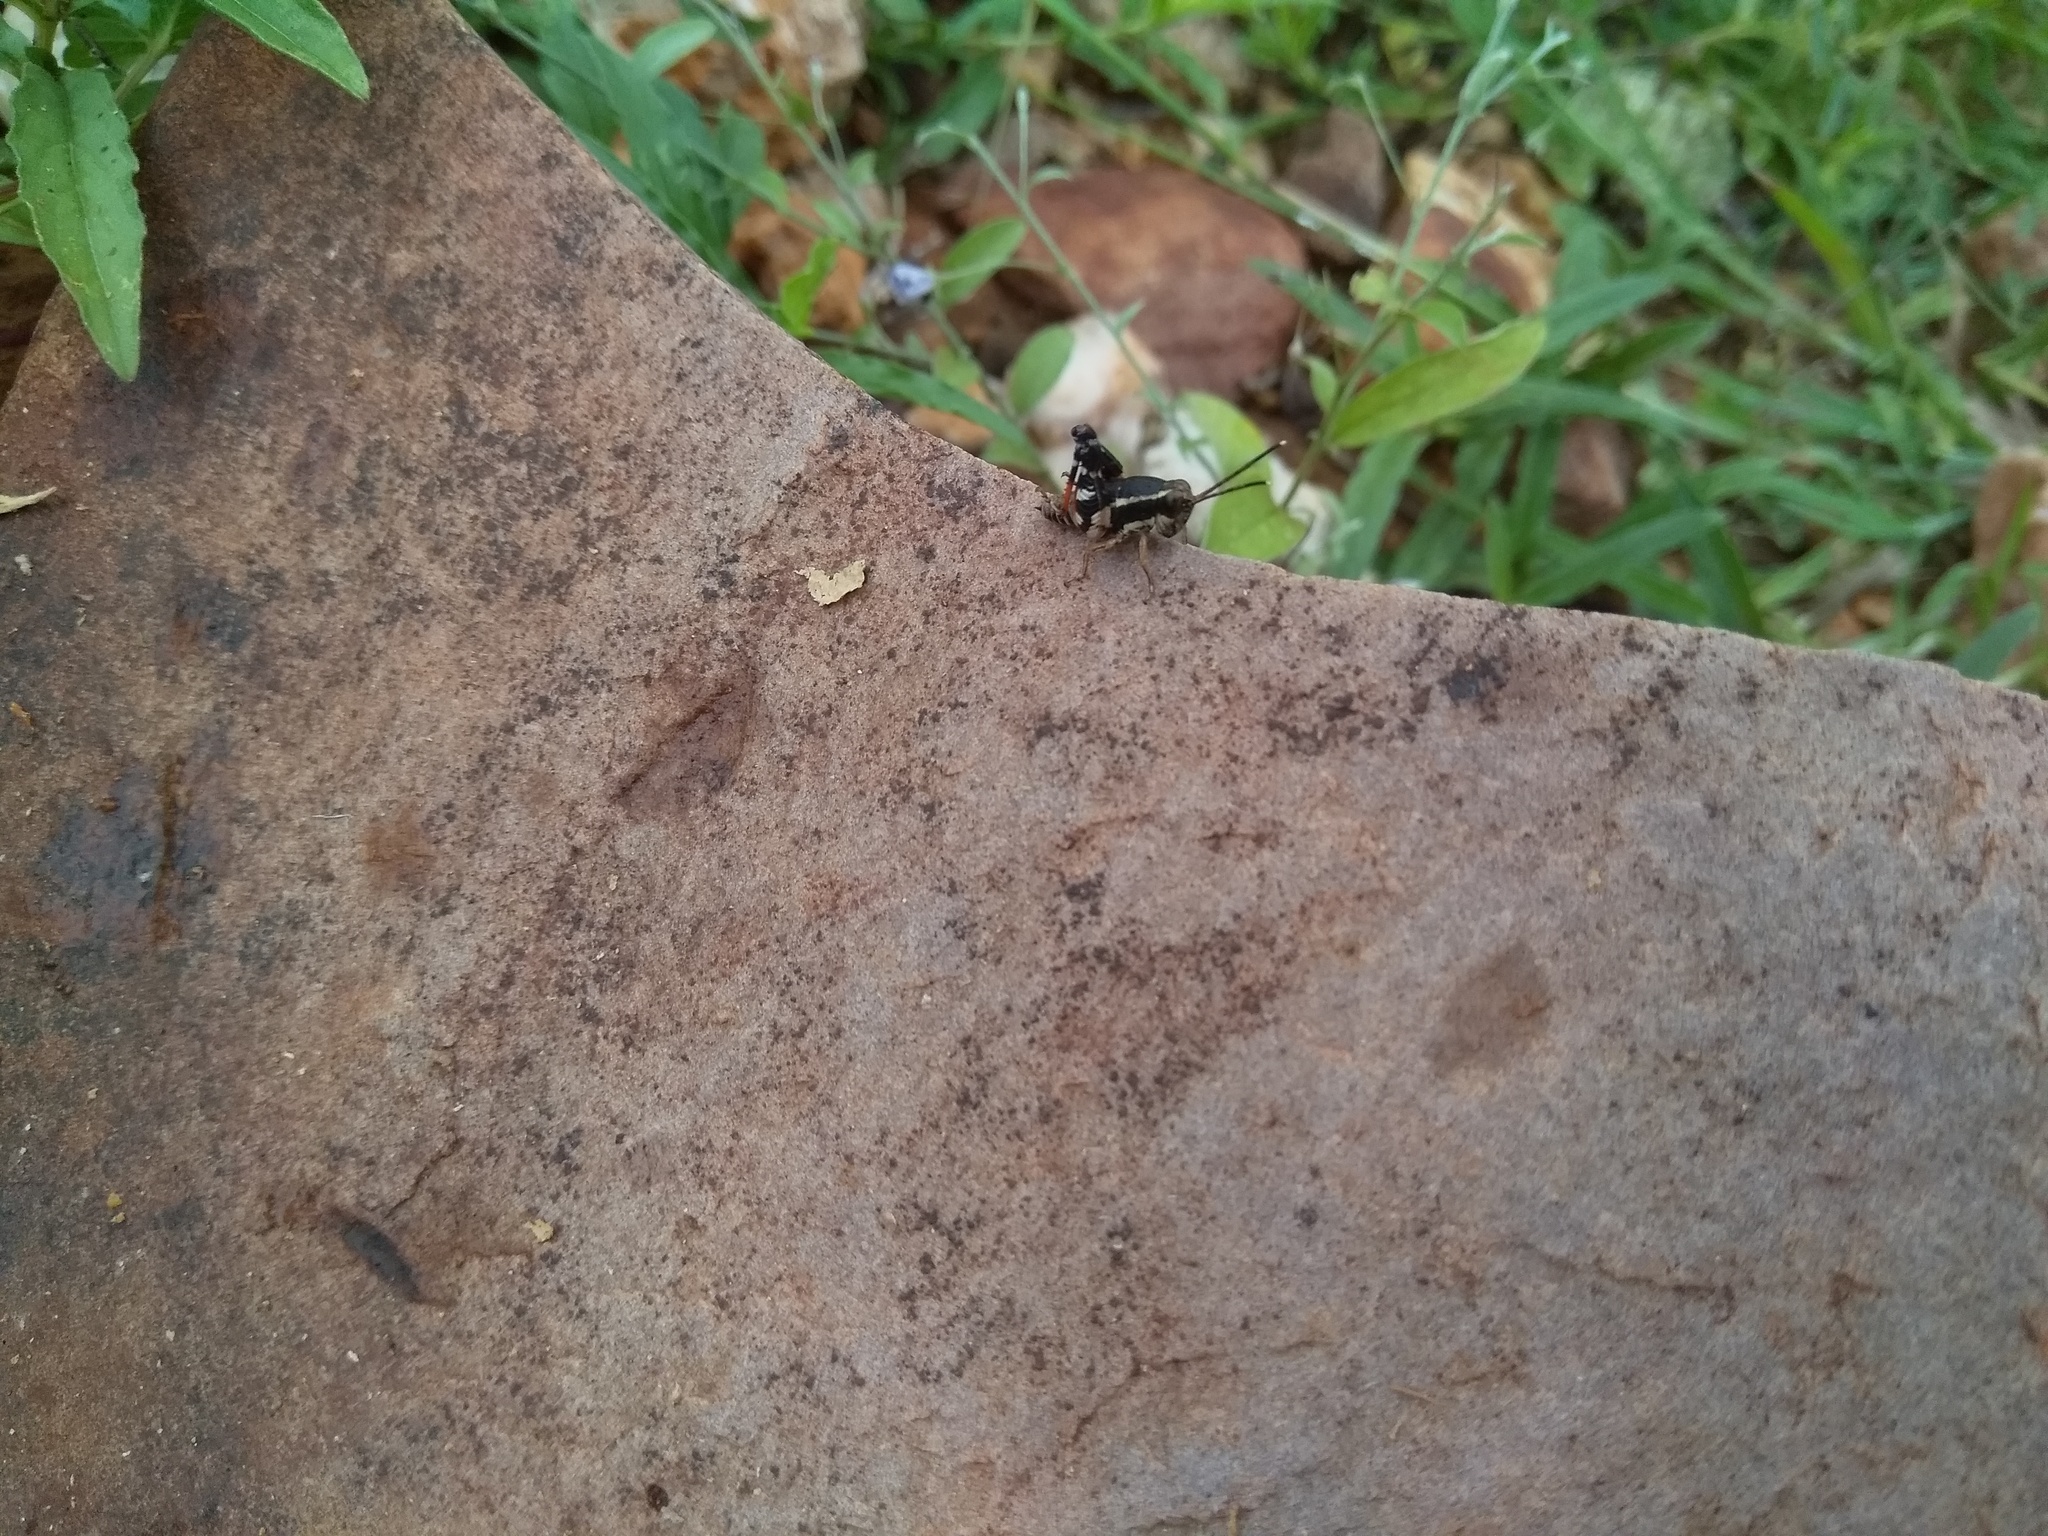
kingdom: Animalia
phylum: Arthropoda
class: Insecta
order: Orthoptera
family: Acrididae
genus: Opharicus
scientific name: Opharicus ballardi
